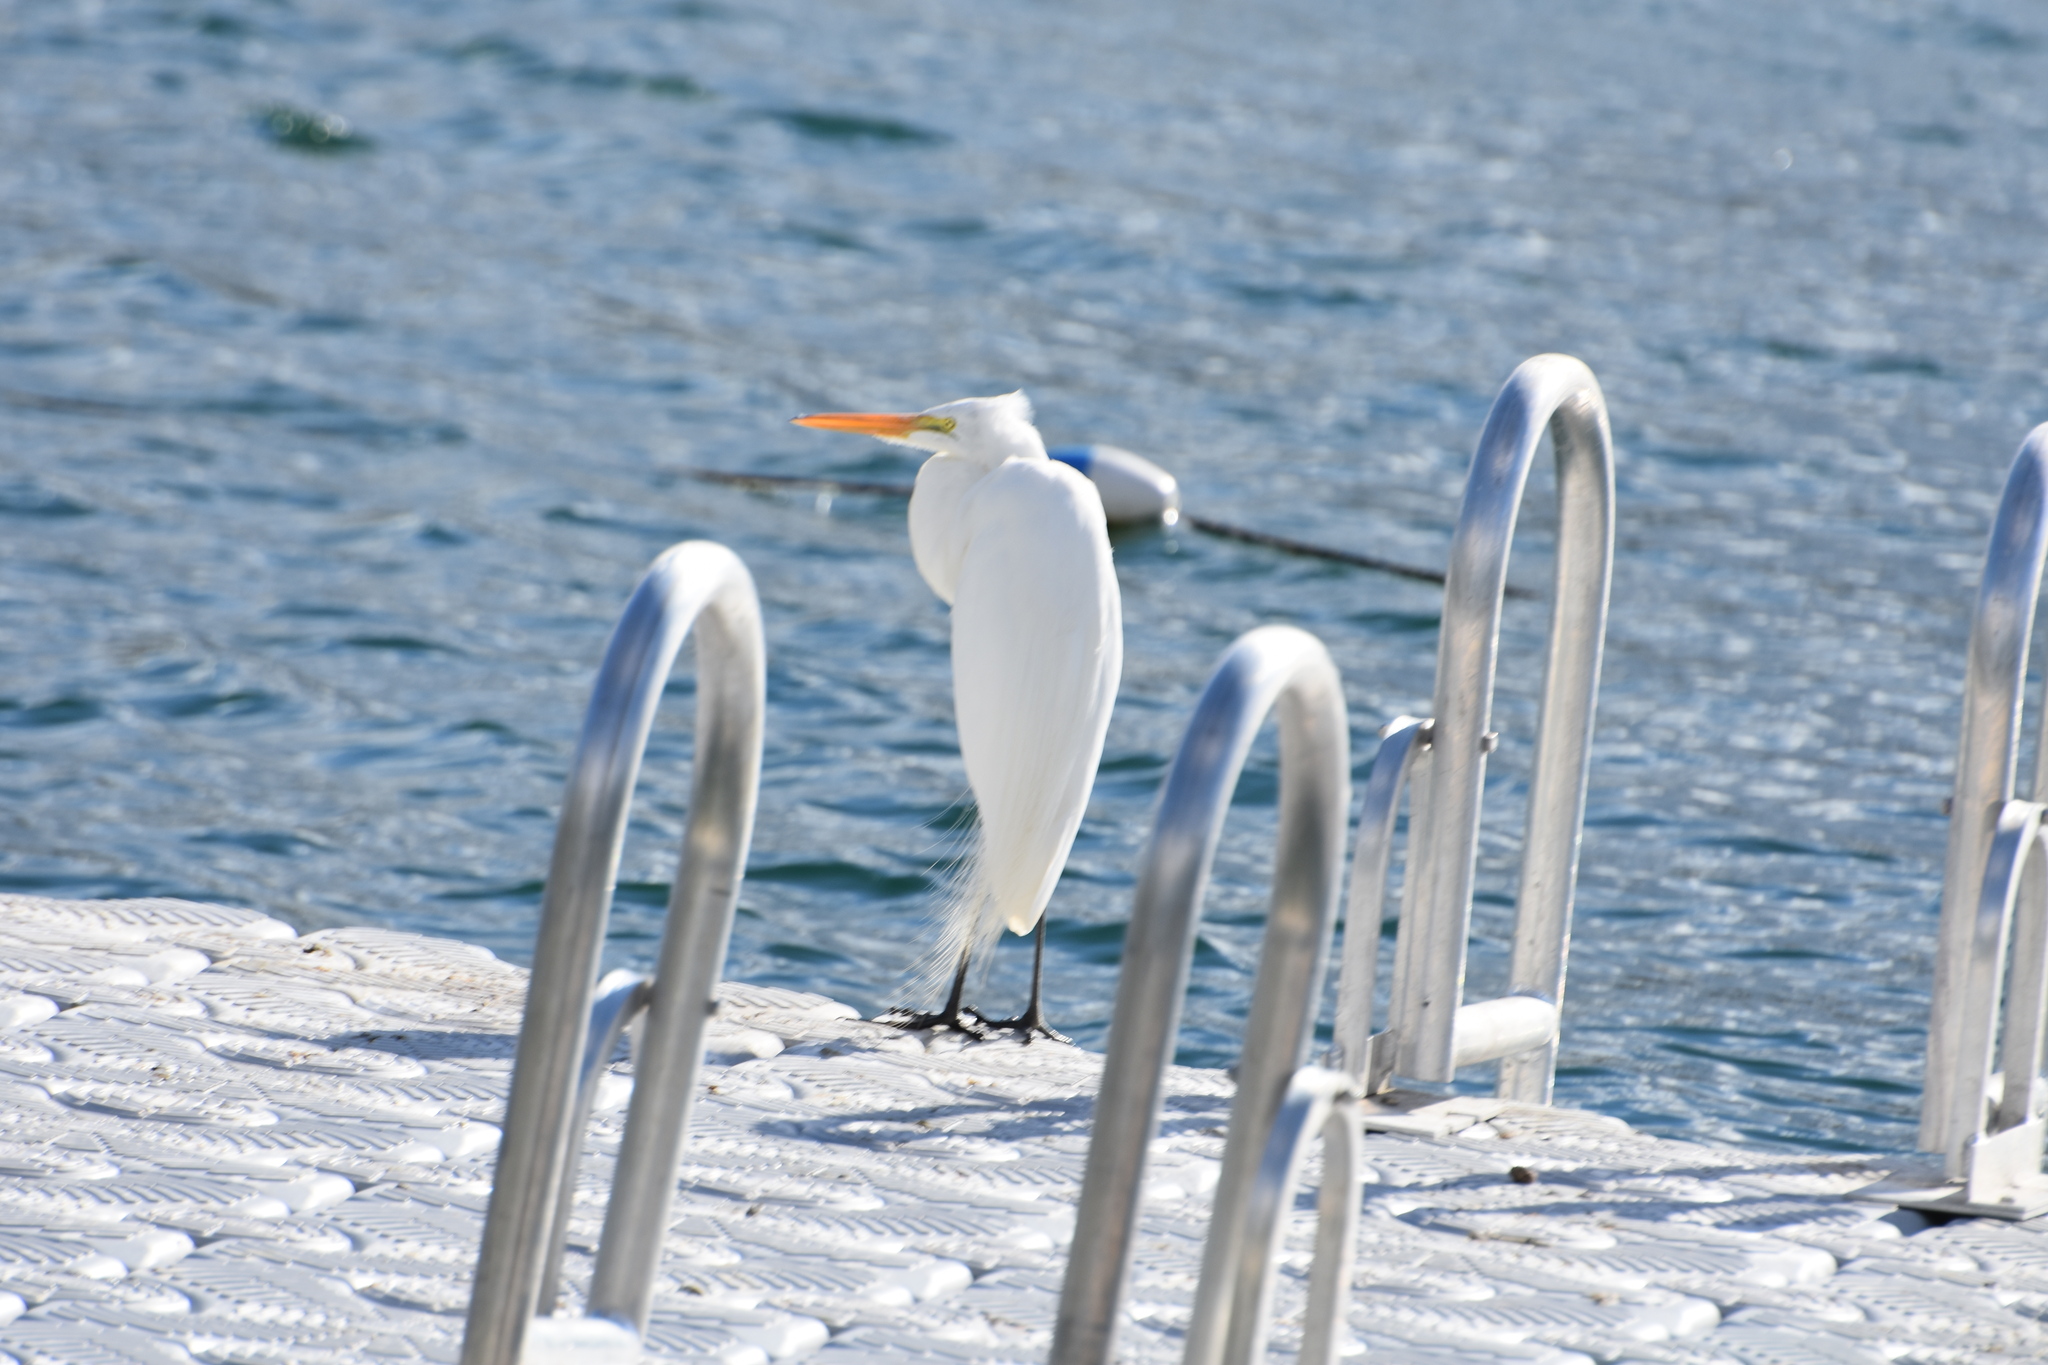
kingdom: Animalia
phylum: Chordata
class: Aves
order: Pelecaniformes
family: Ardeidae
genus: Ardea
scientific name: Ardea alba
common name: Great egret
